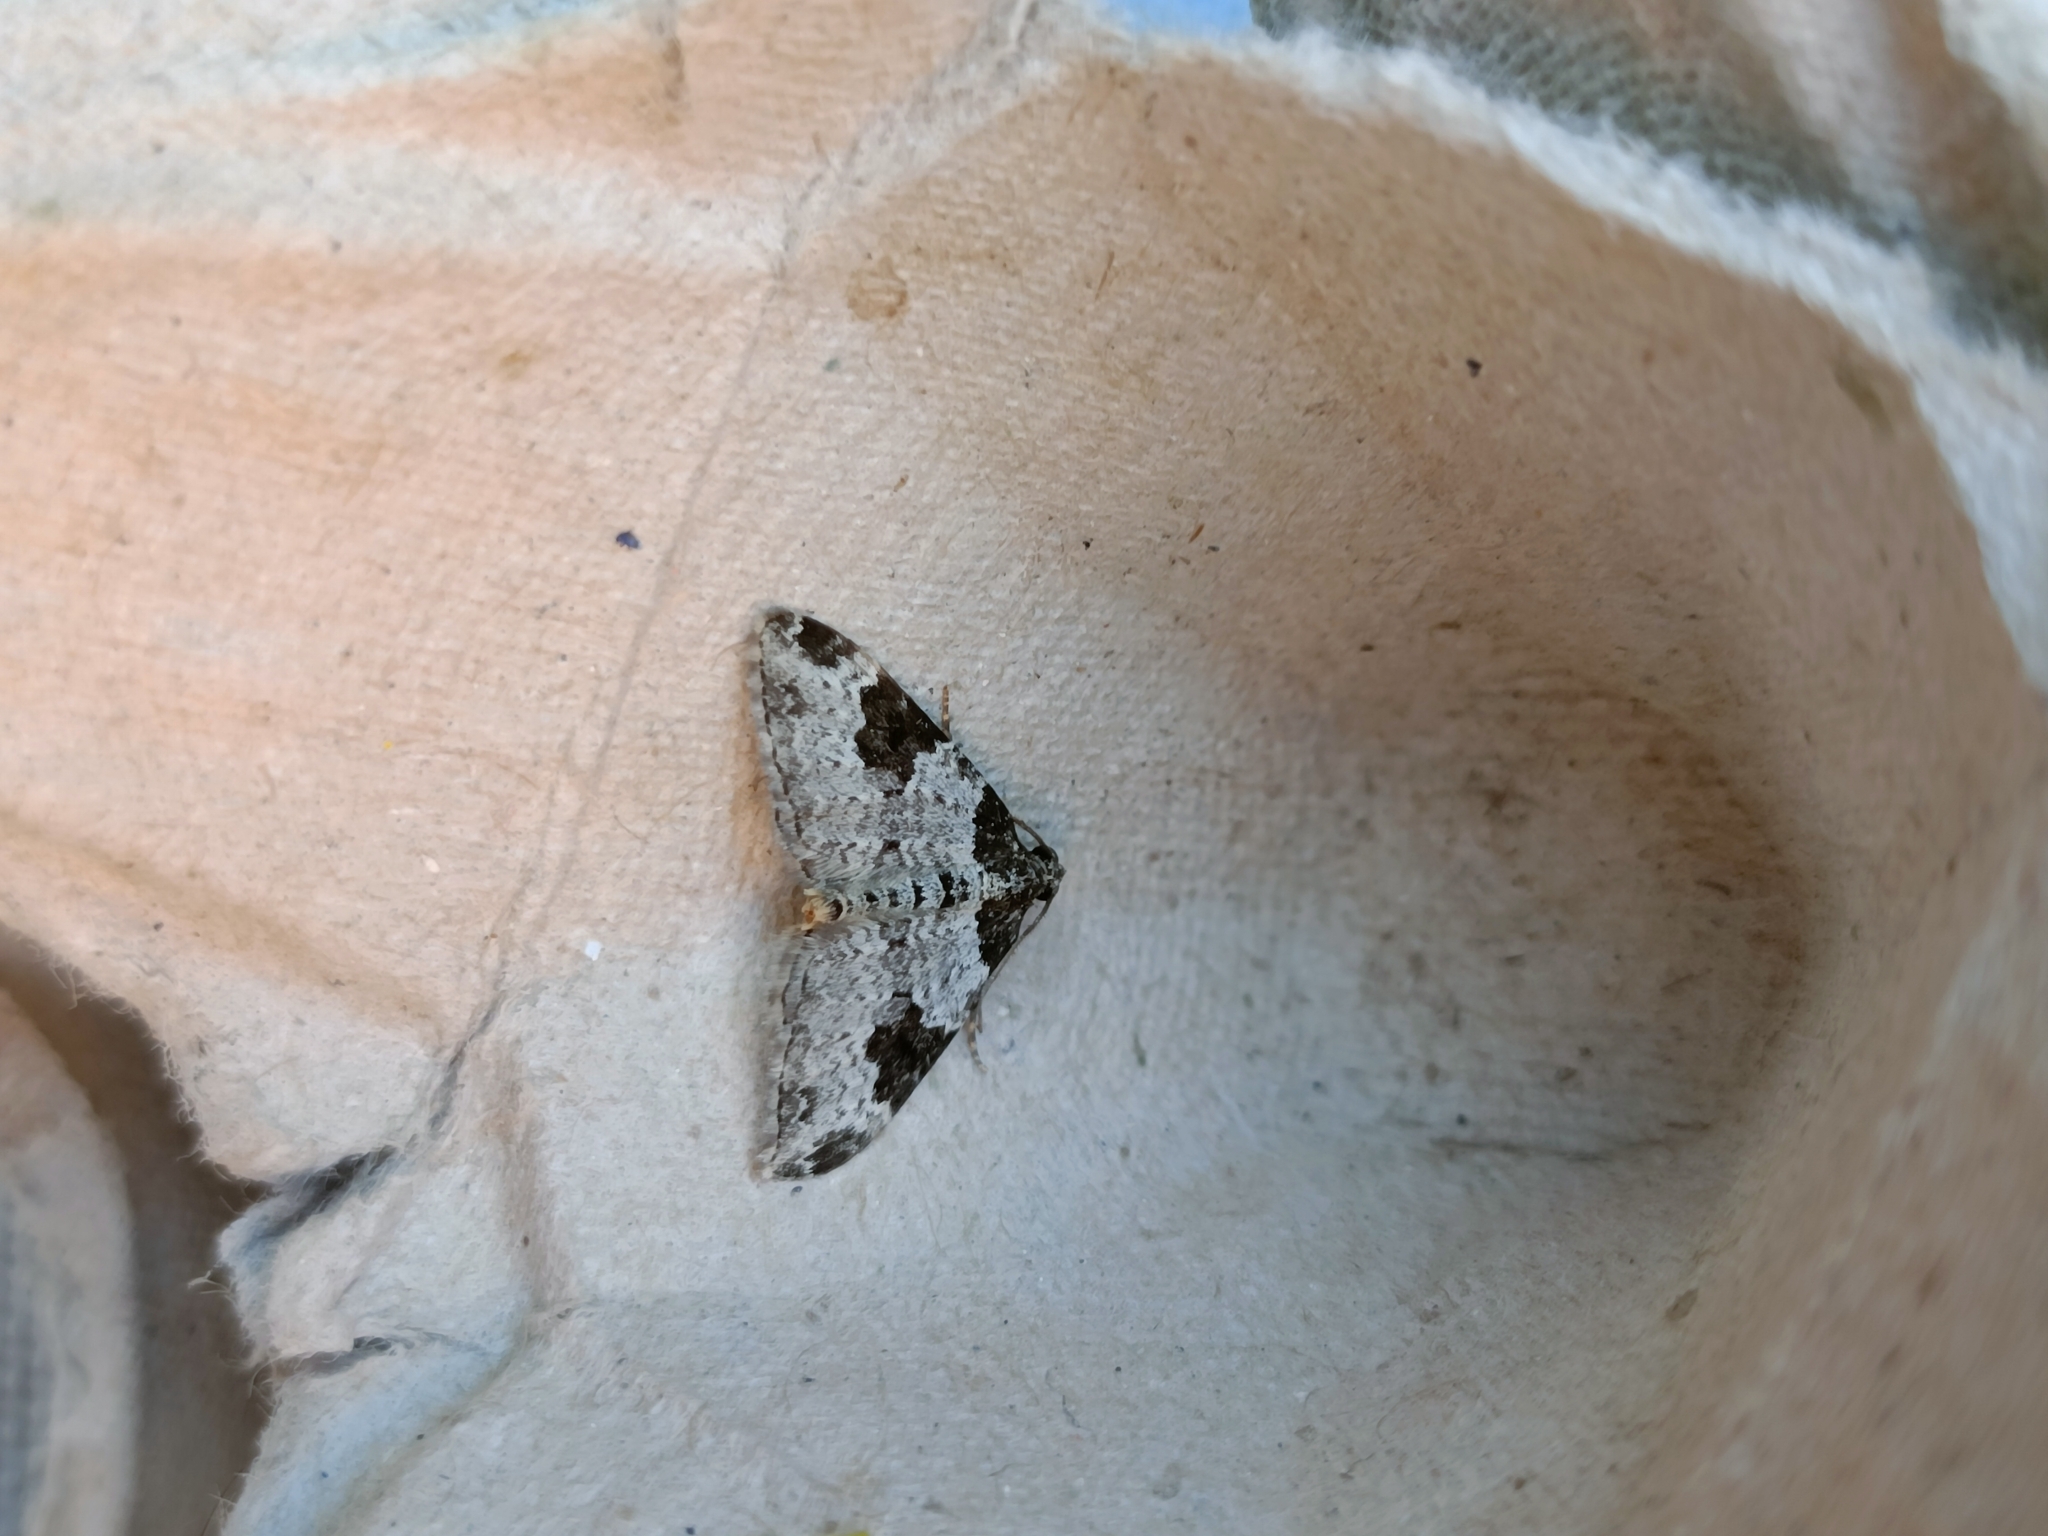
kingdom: Animalia
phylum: Arthropoda
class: Insecta
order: Lepidoptera
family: Geometridae
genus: Xanthorhoe
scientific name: Xanthorhoe fluctuata
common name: Garden carpet
